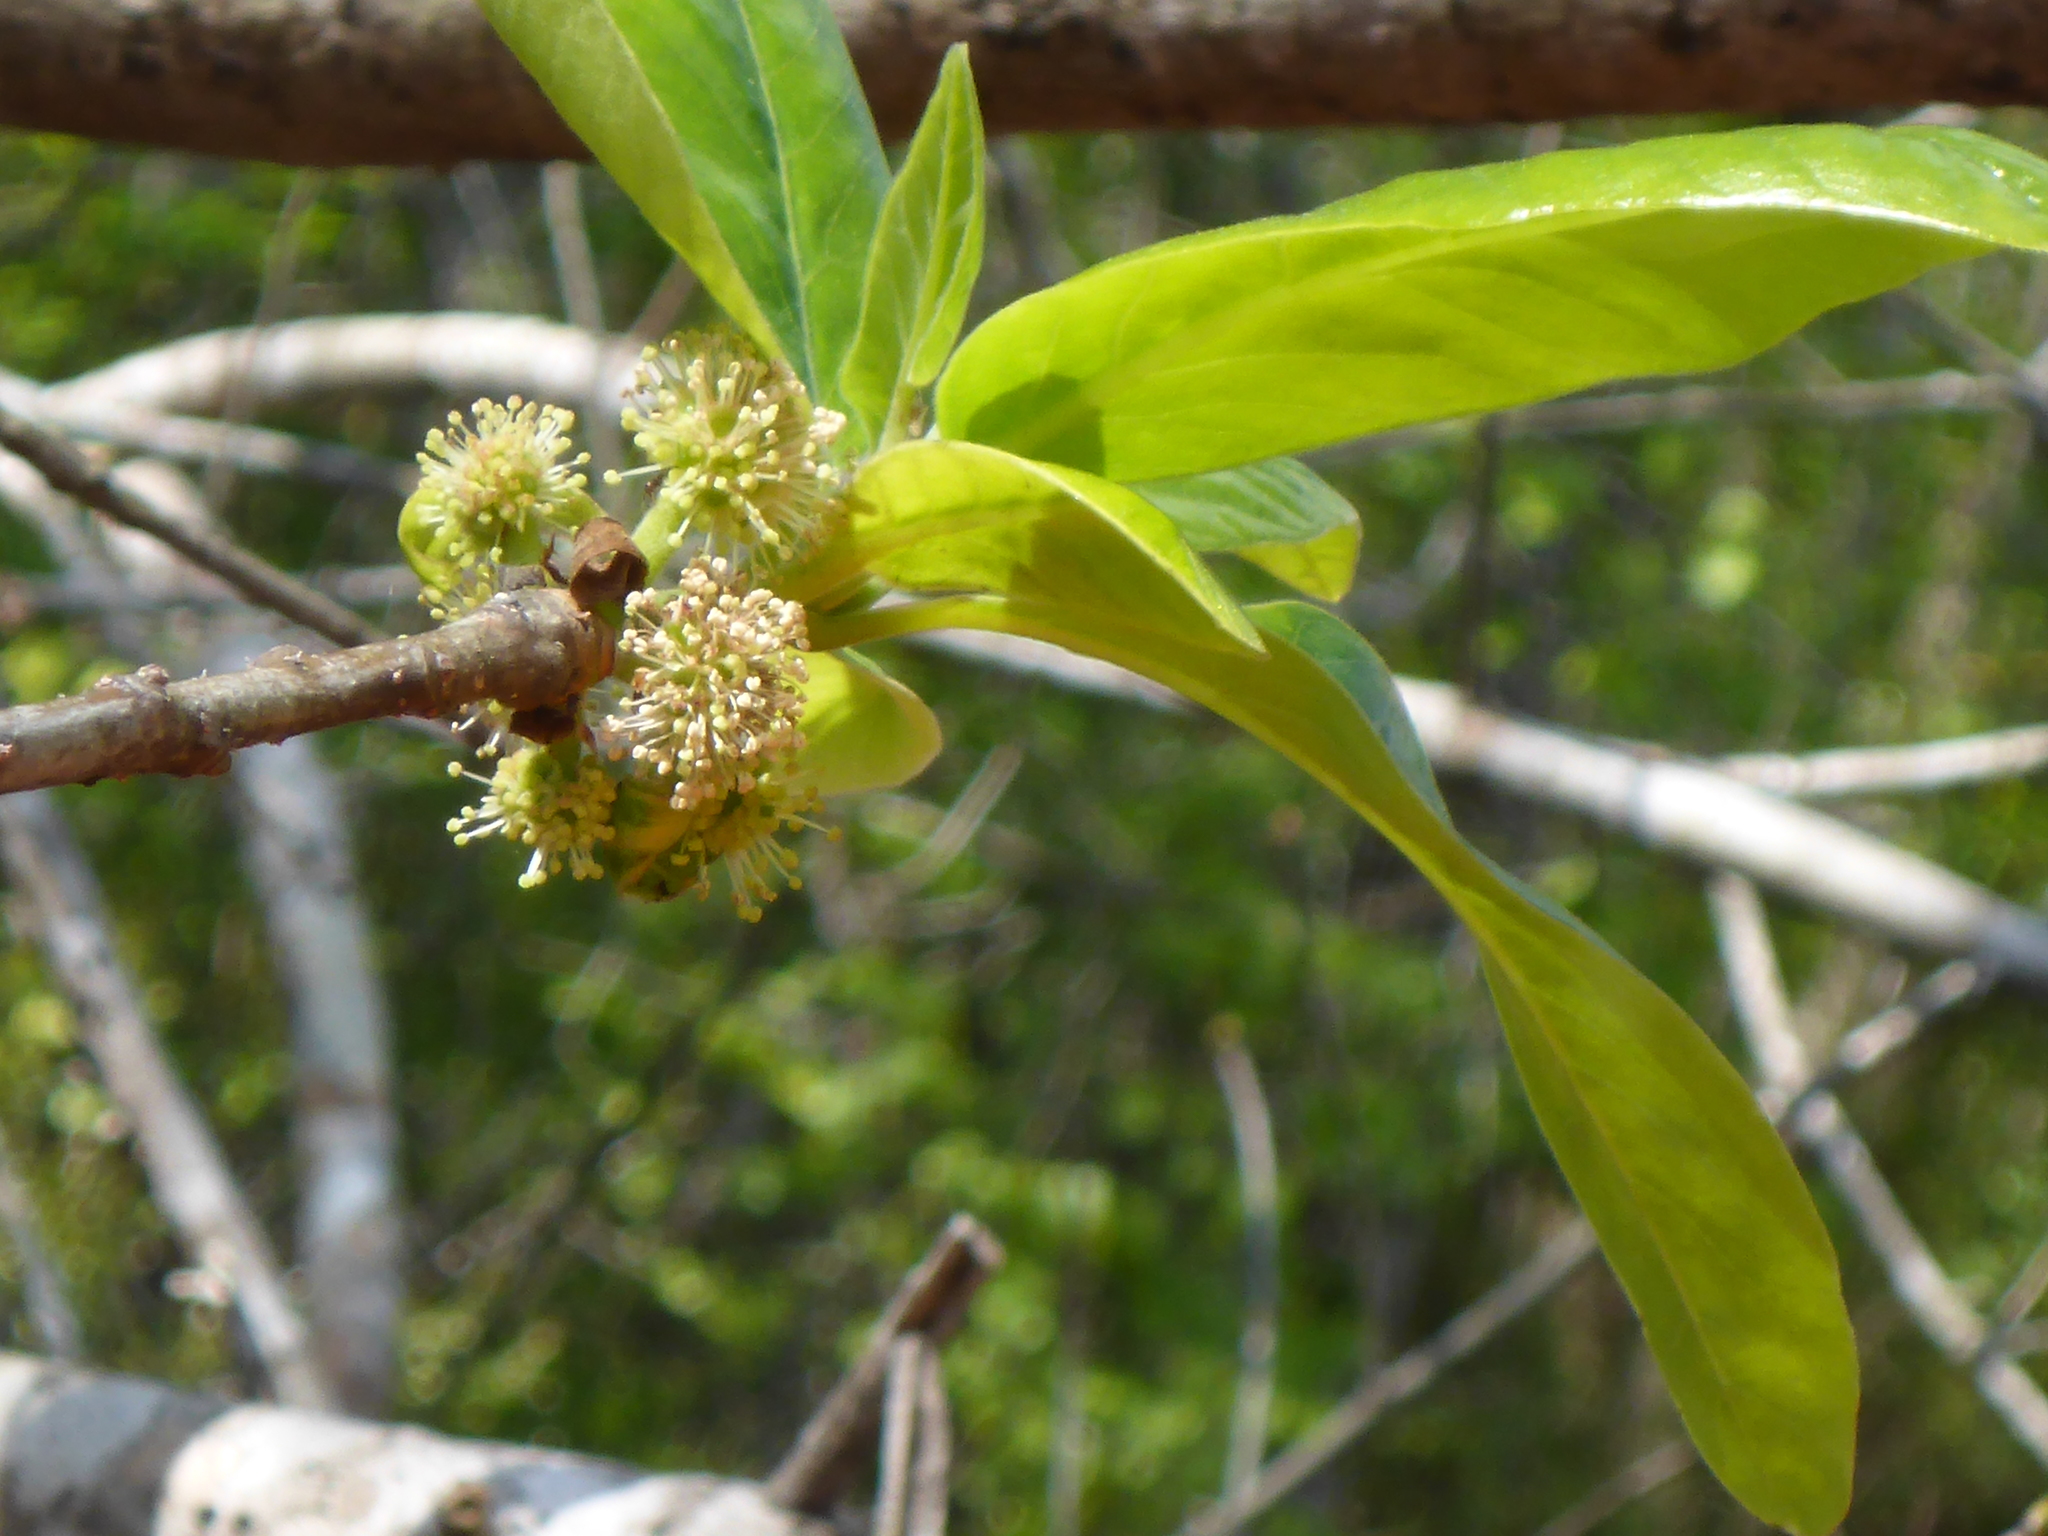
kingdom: Plantae
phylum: Tracheophyta
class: Magnoliopsida
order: Cornales
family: Nyssaceae
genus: Nyssa
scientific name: Nyssa ogeche
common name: Ogeechee tupelo
